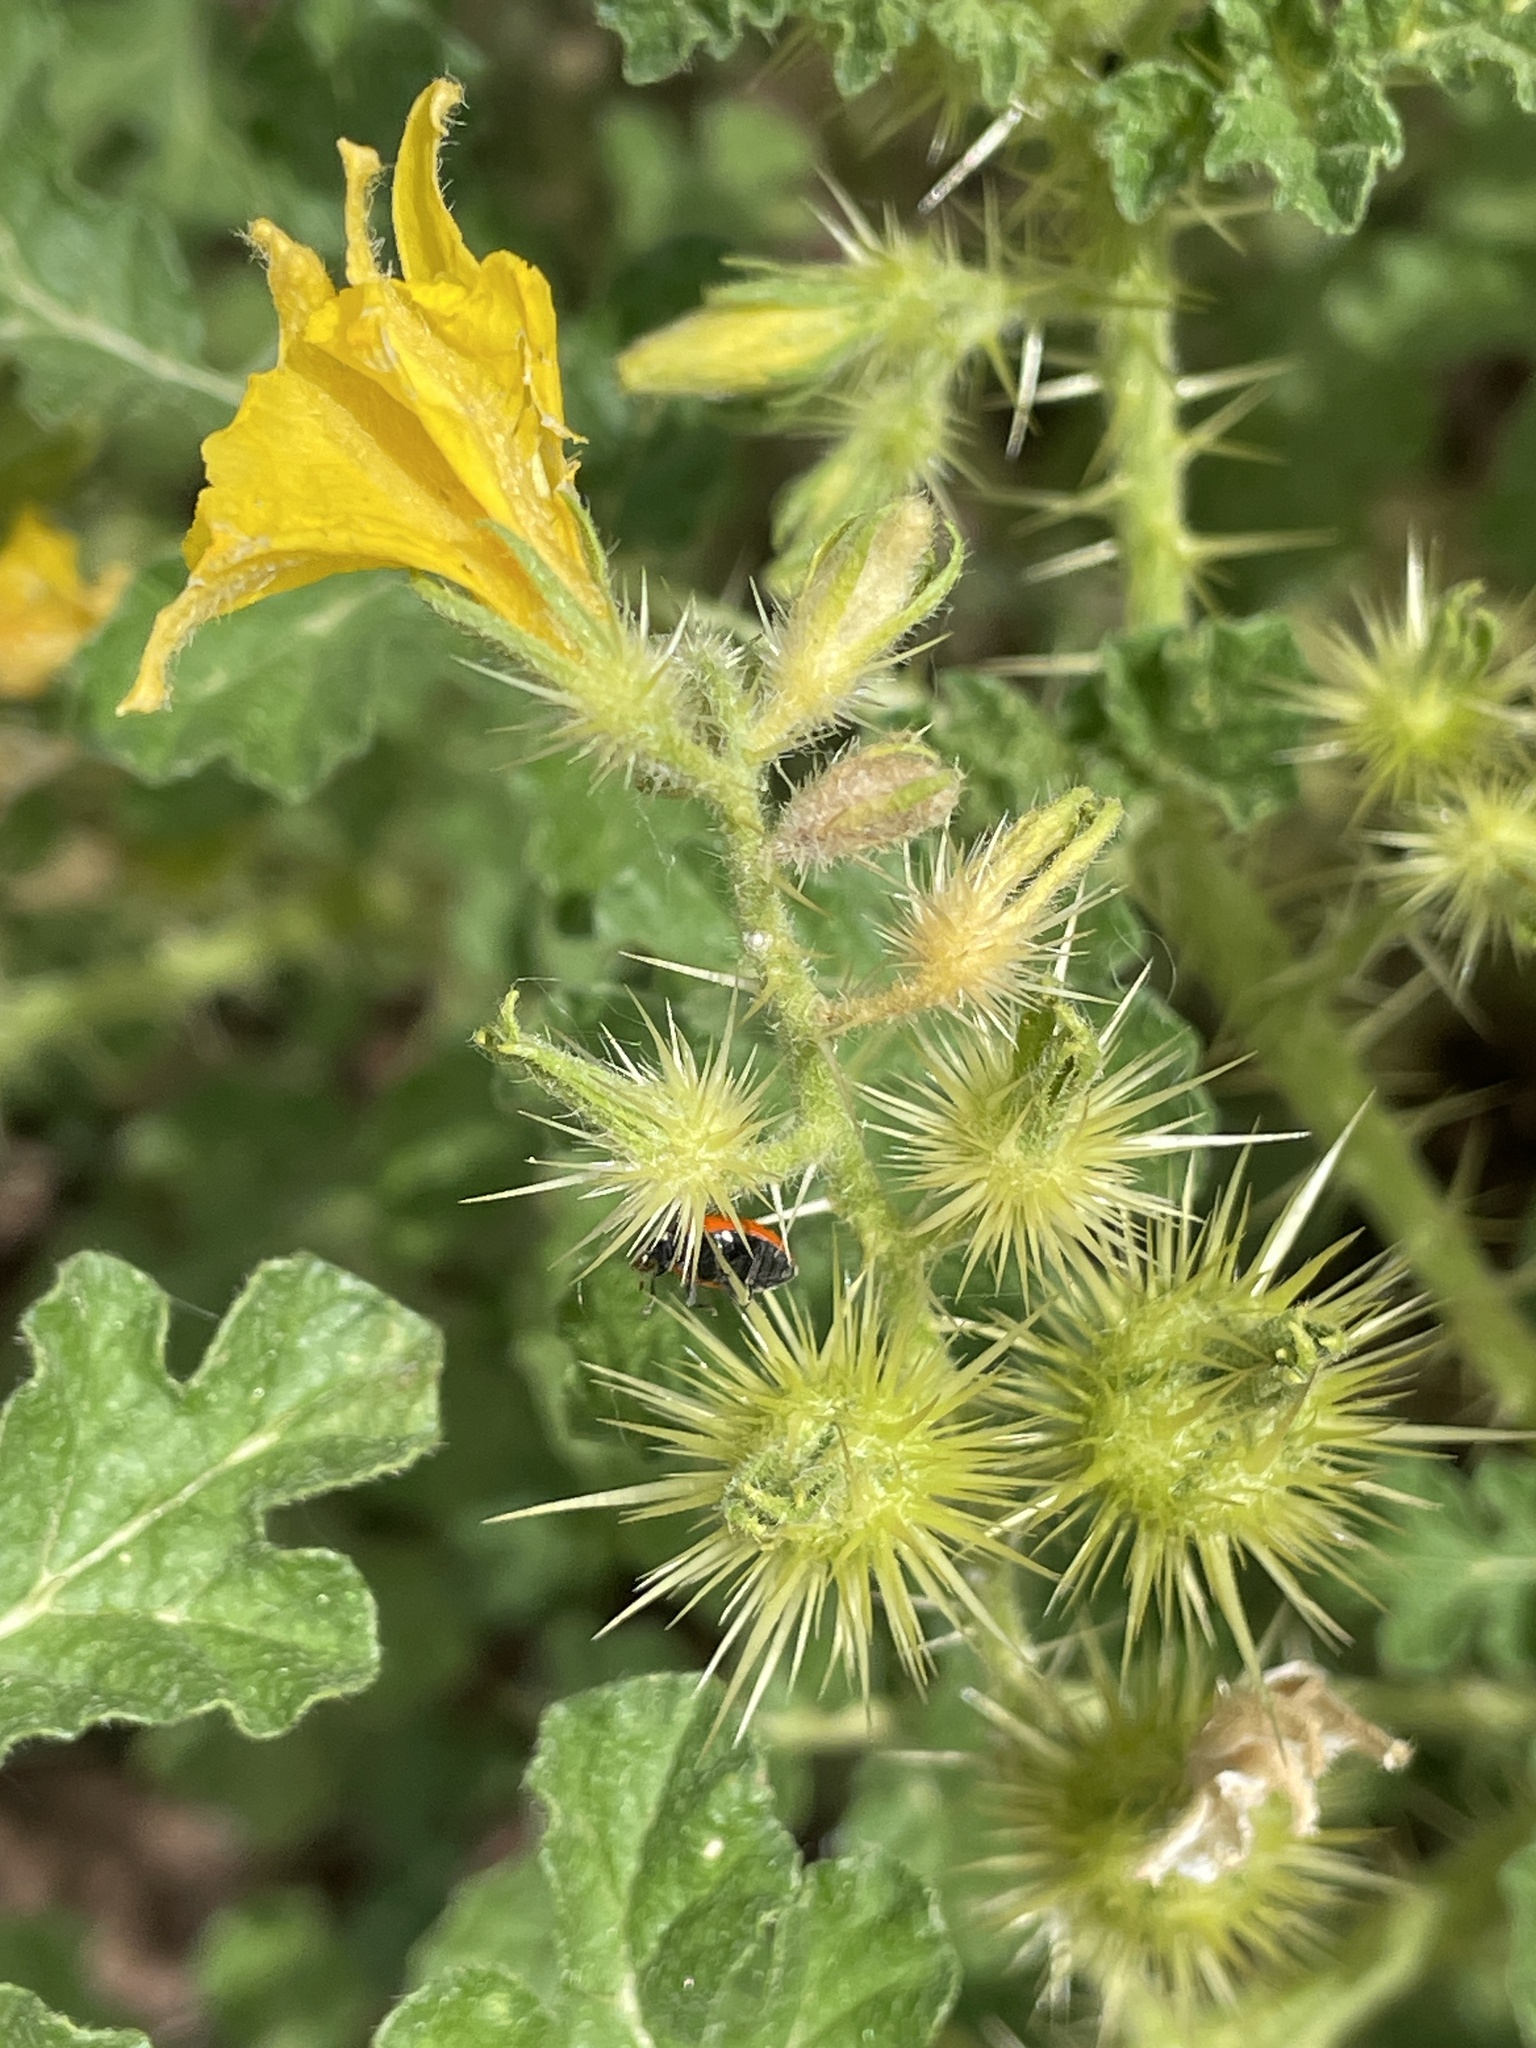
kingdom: Plantae
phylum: Tracheophyta
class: Magnoliopsida
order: Solanales
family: Solanaceae
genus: Solanum
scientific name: Solanum angustifolium
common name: Buffalobur nightshade
